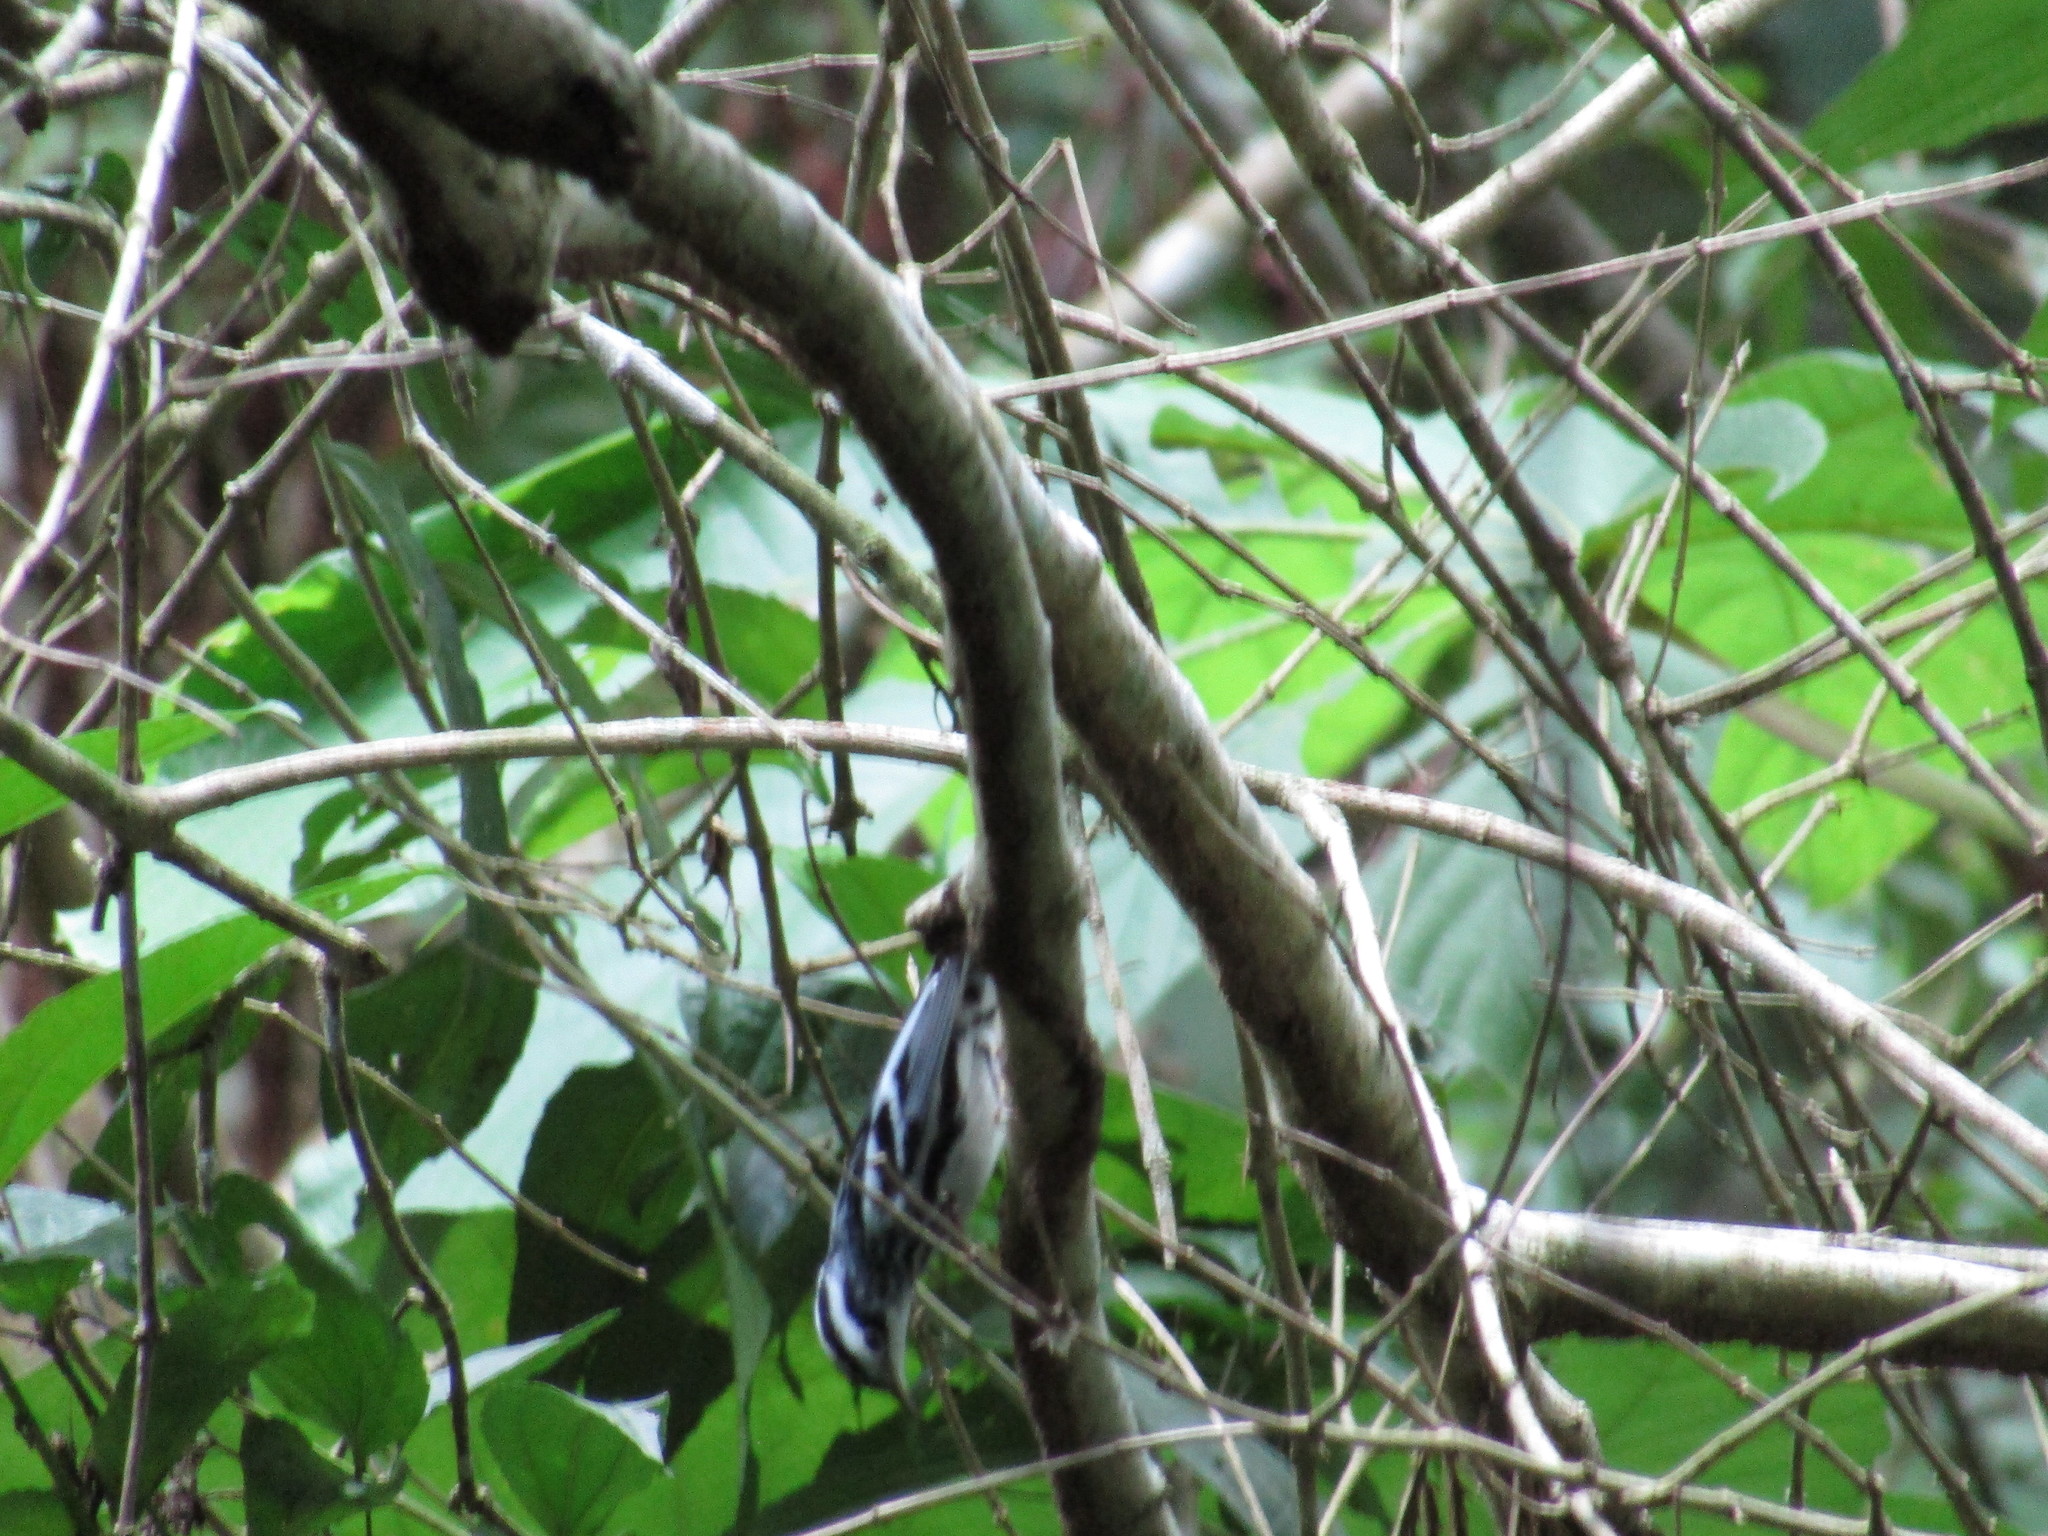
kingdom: Animalia
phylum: Chordata
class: Aves
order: Passeriformes
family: Parulidae
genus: Mniotilta
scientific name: Mniotilta varia
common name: Black-and-white warbler
